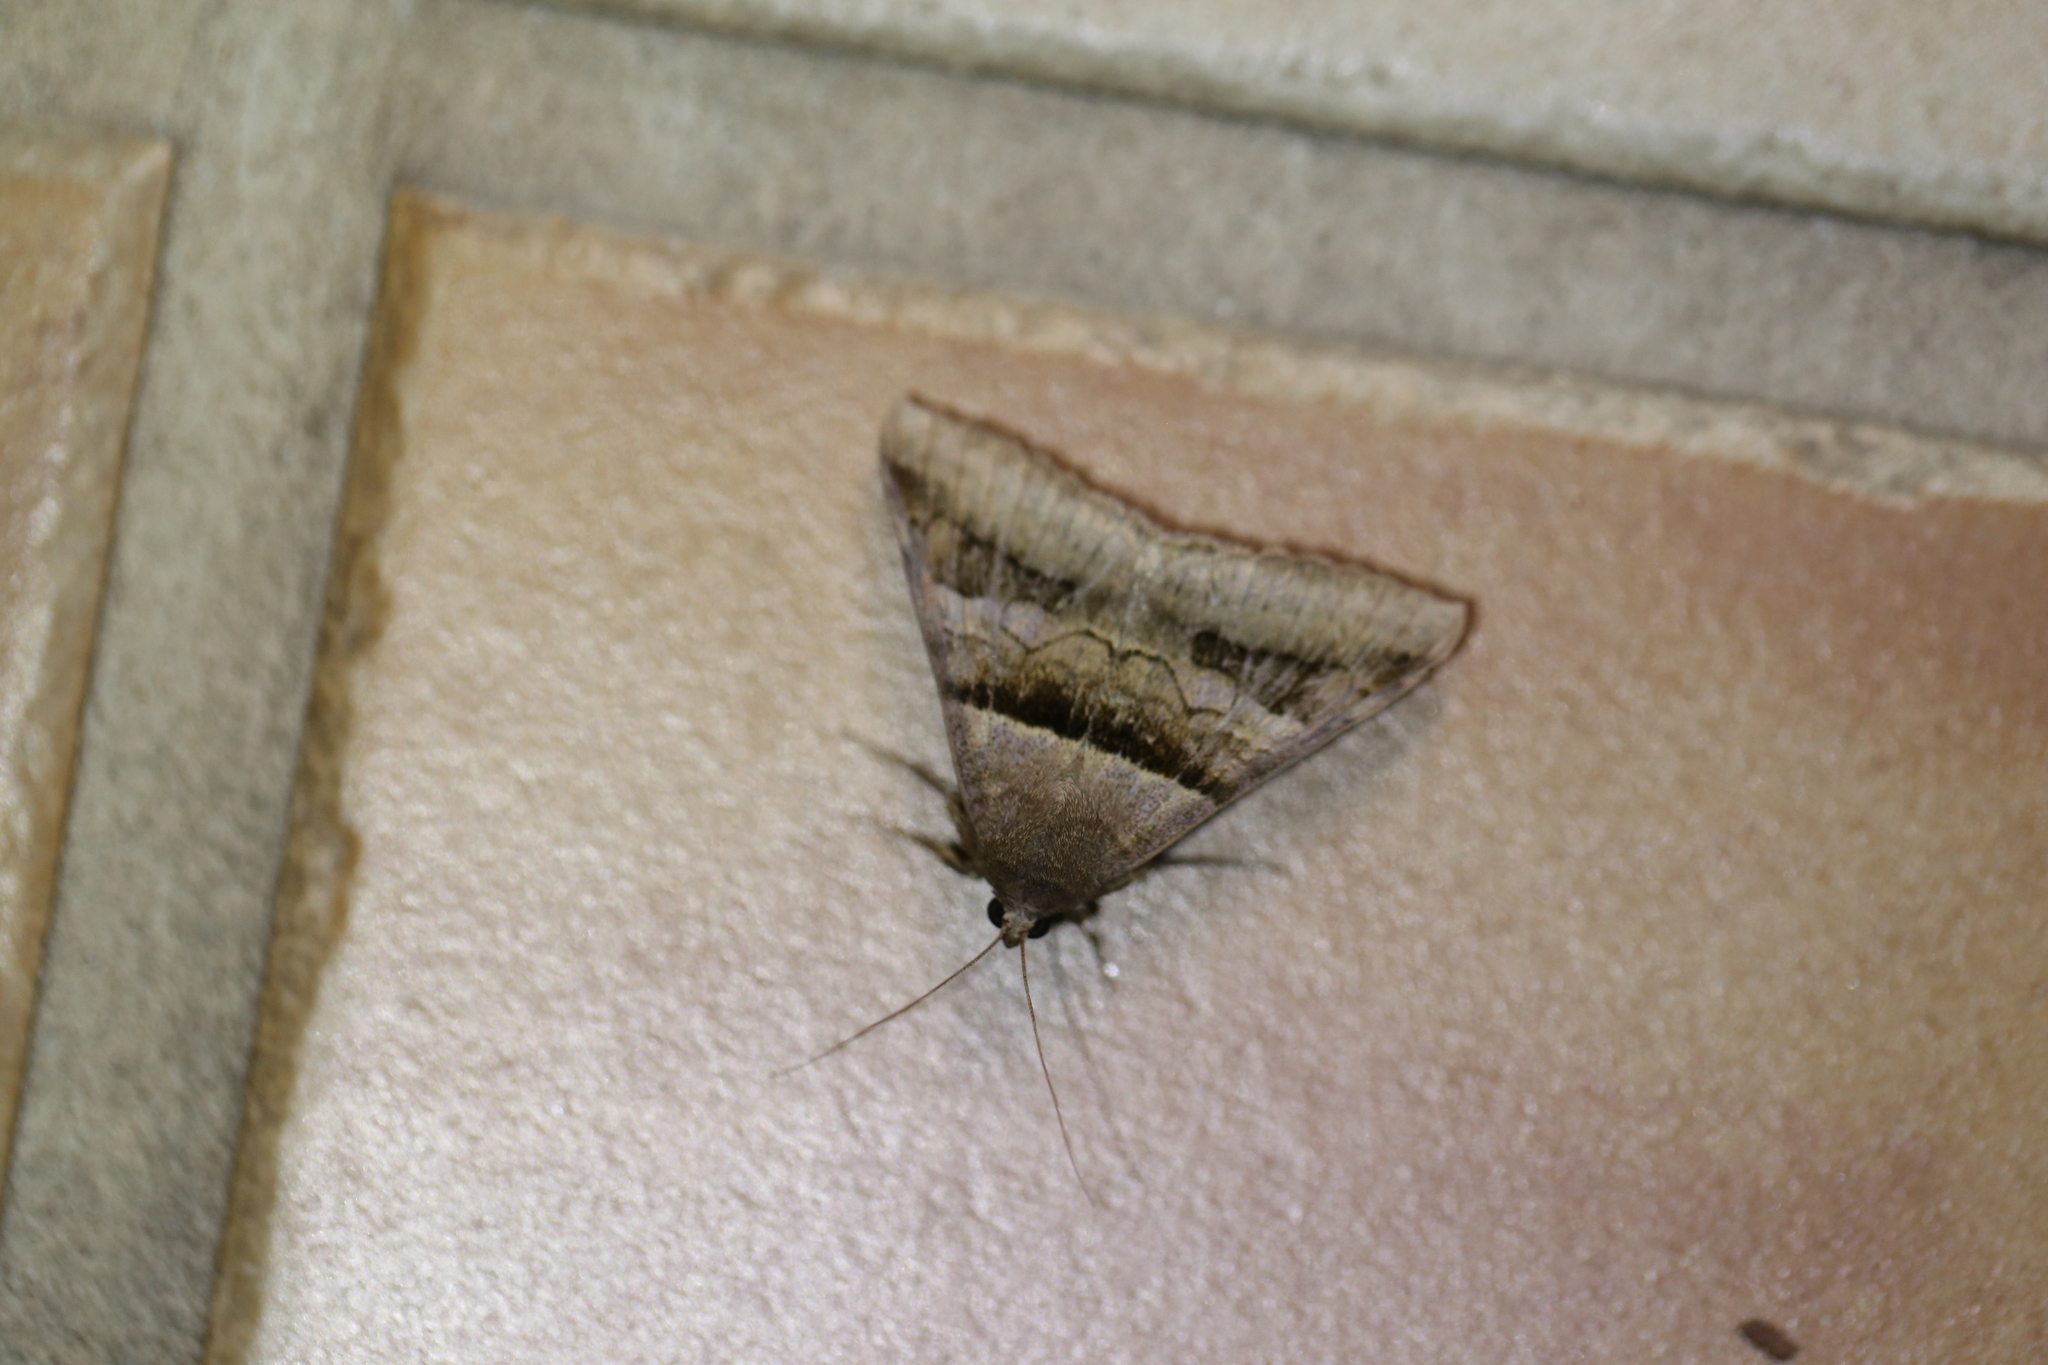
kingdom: Animalia
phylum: Arthropoda
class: Insecta
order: Lepidoptera
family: Erebidae
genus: Mocis
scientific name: Mocis trifasciata
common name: Triple-barred
